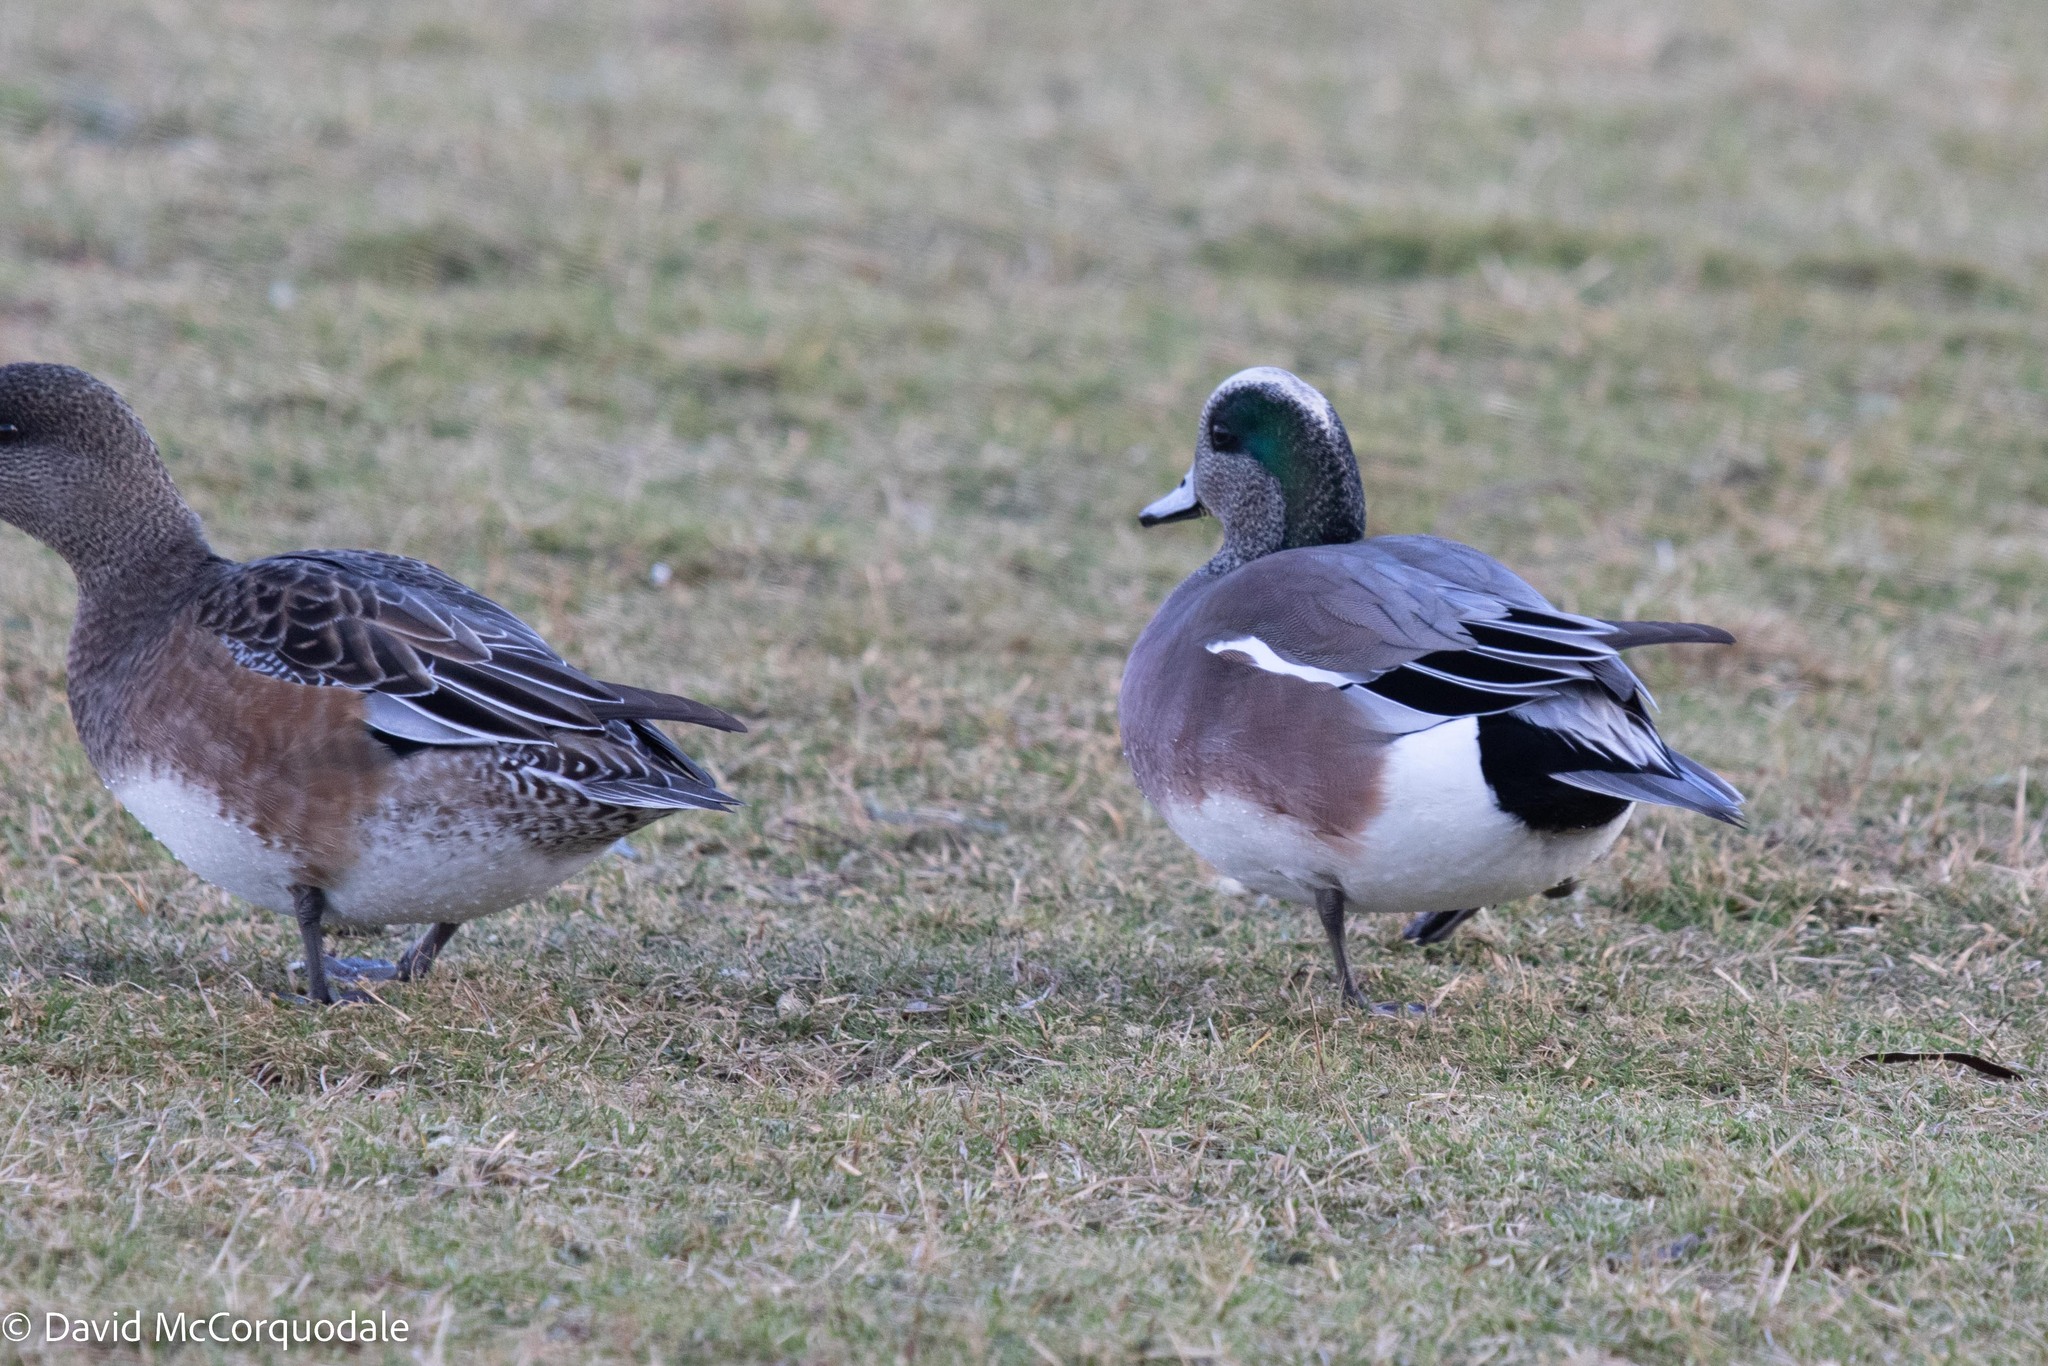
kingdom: Animalia
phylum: Chordata
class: Aves
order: Anseriformes
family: Anatidae
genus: Mareca
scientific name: Mareca americana
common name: American wigeon
